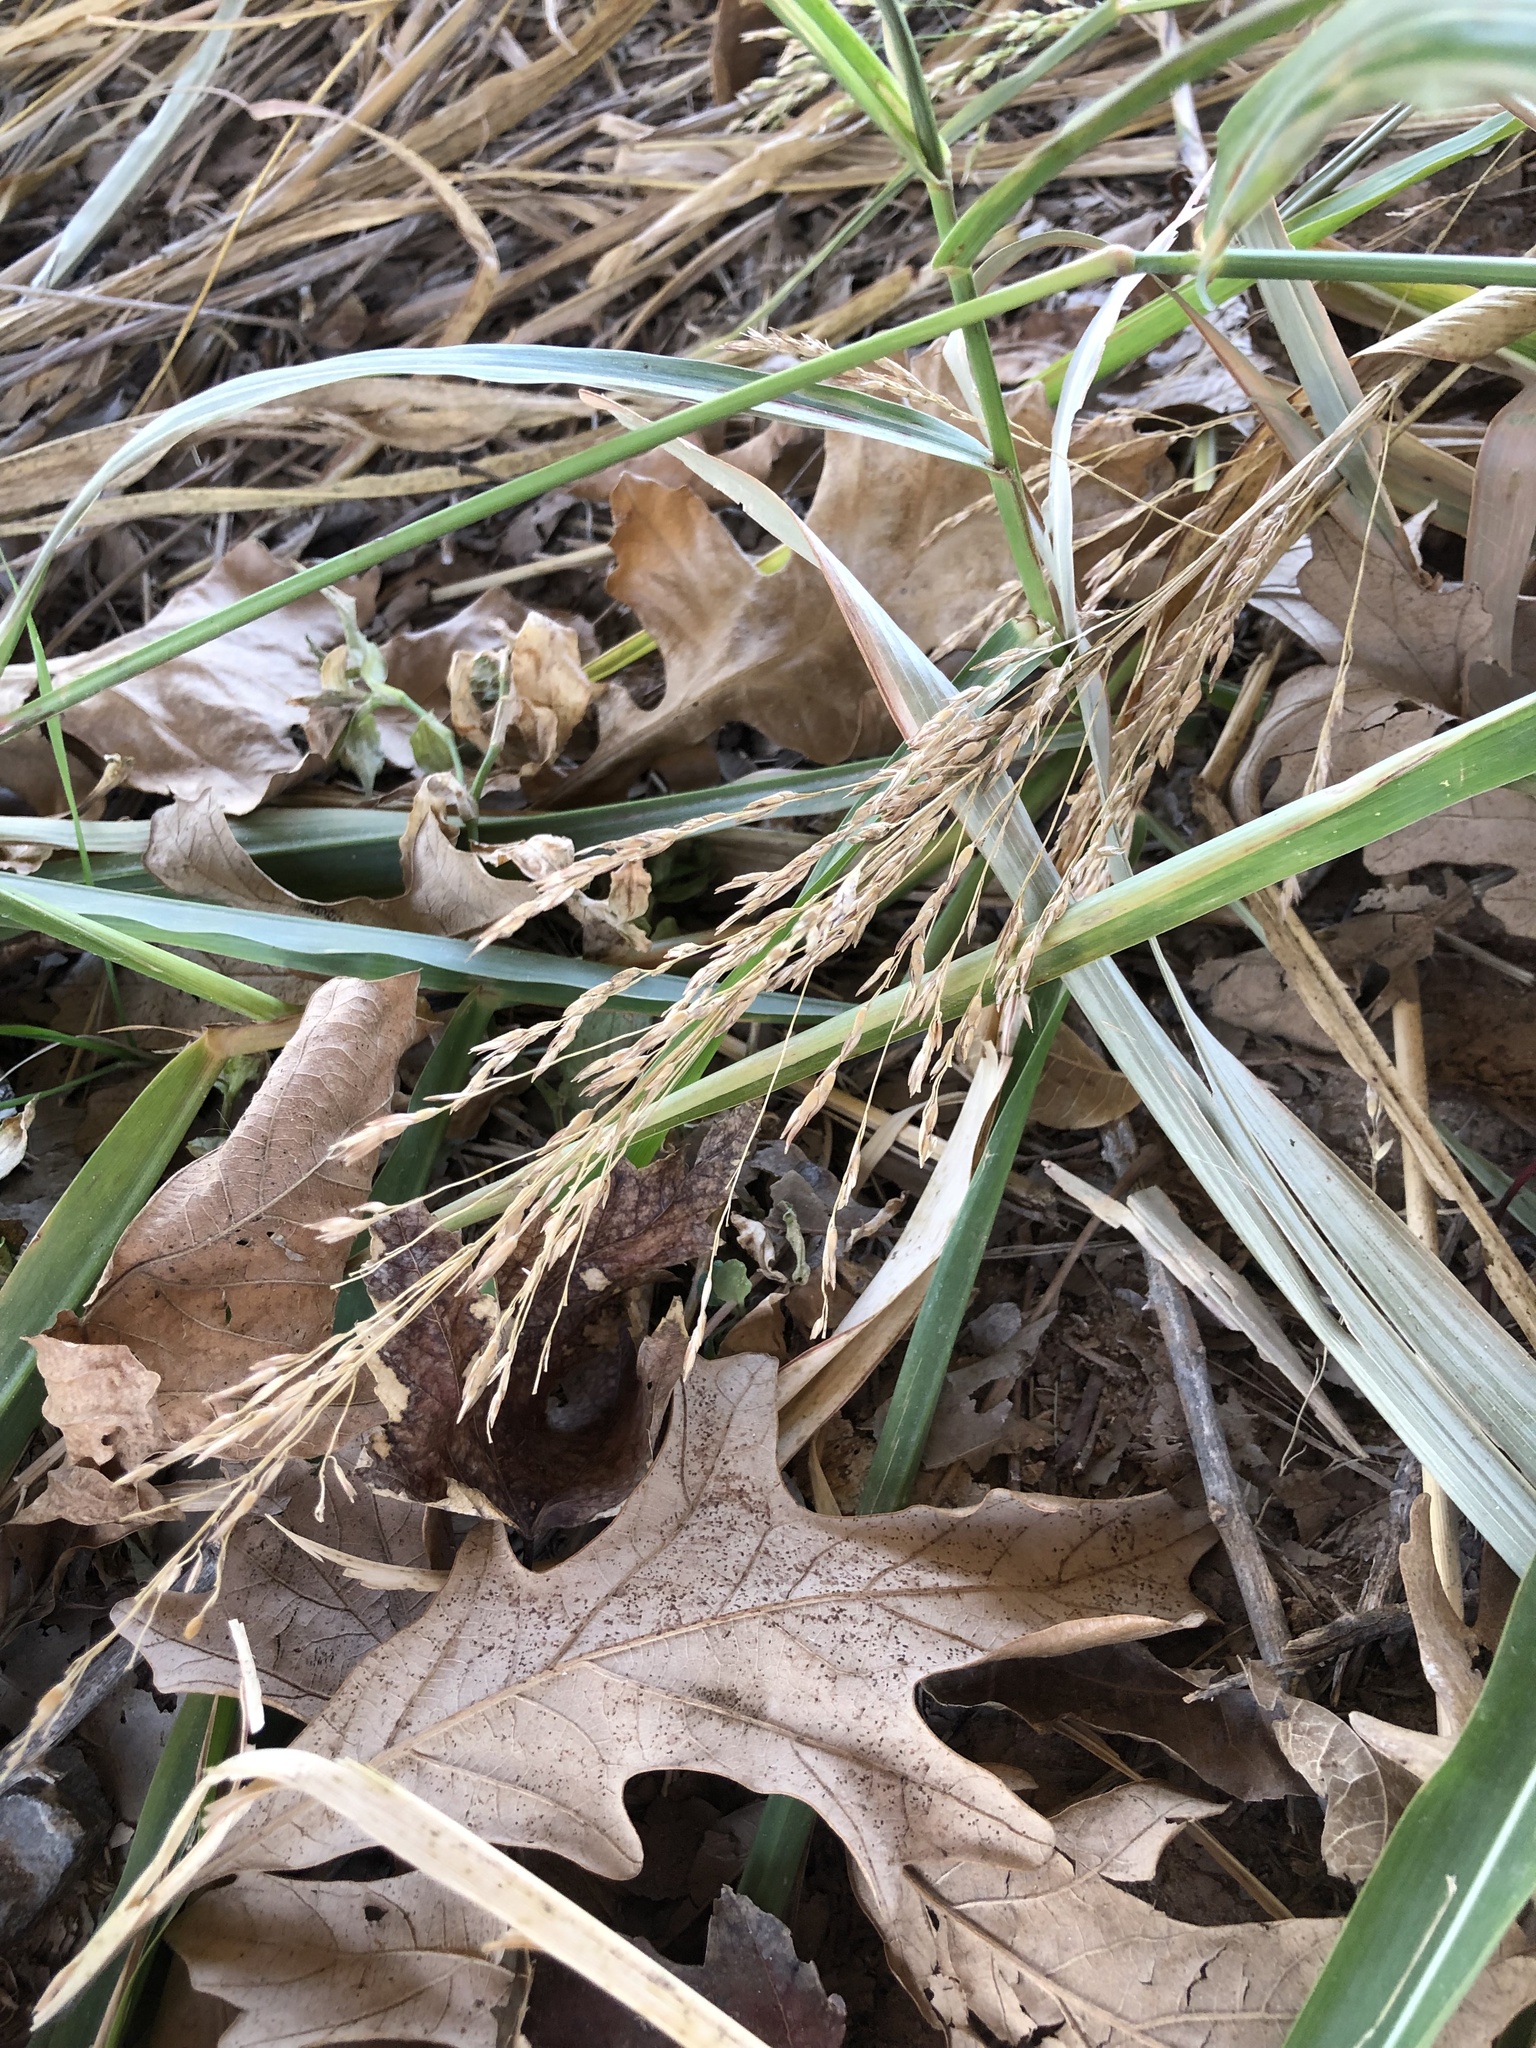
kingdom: Plantae
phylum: Tracheophyta
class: Liliopsida
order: Poales
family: Poaceae
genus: Sorghum
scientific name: Sorghum halepense
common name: Johnson-grass
